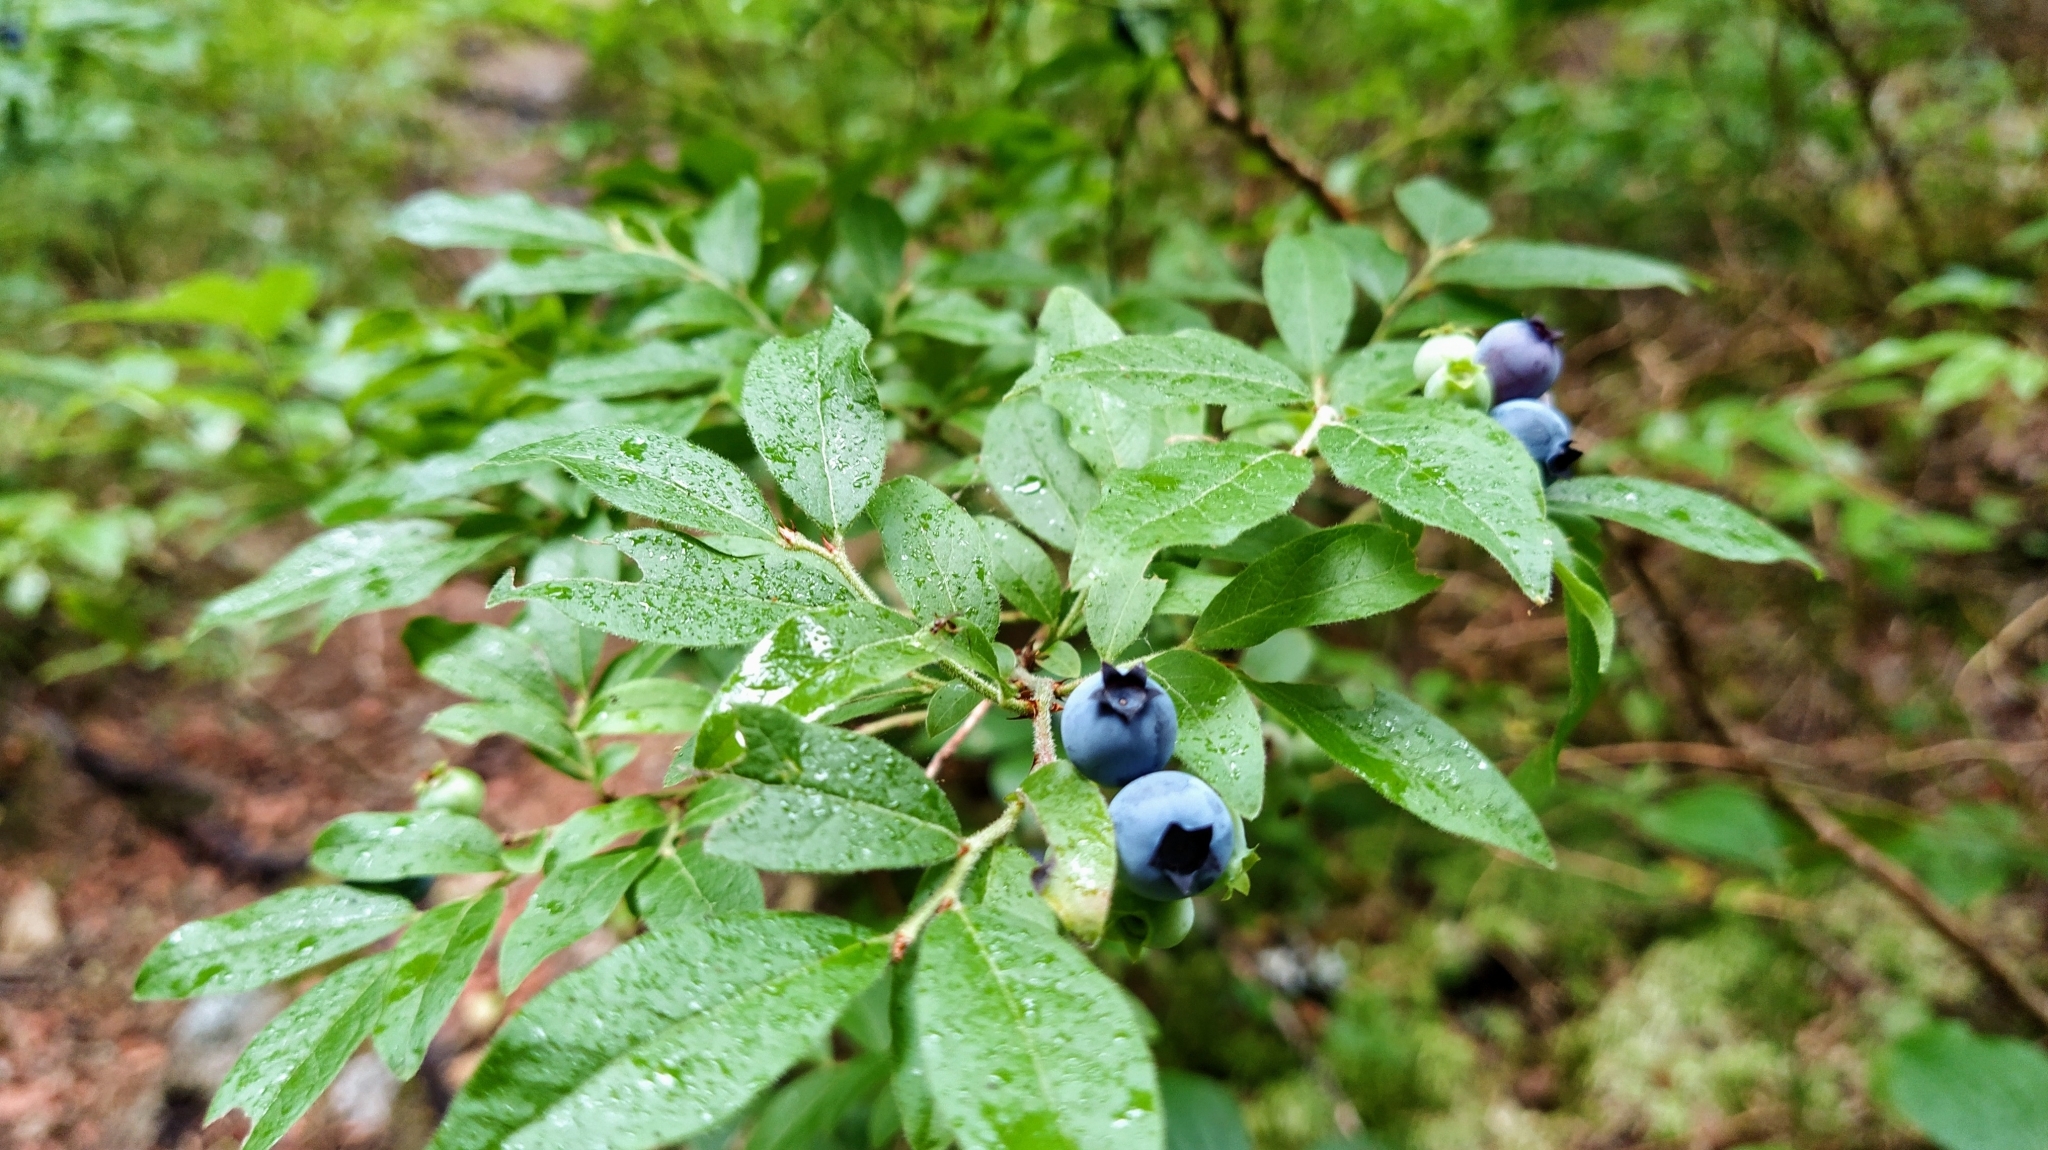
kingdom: Plantae
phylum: Tracheophyta
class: Magnoliopsida
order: Ericales
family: Ericaceae
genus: Vaccinium
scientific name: Vaccinium myrtilloides
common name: Canada blueberry
